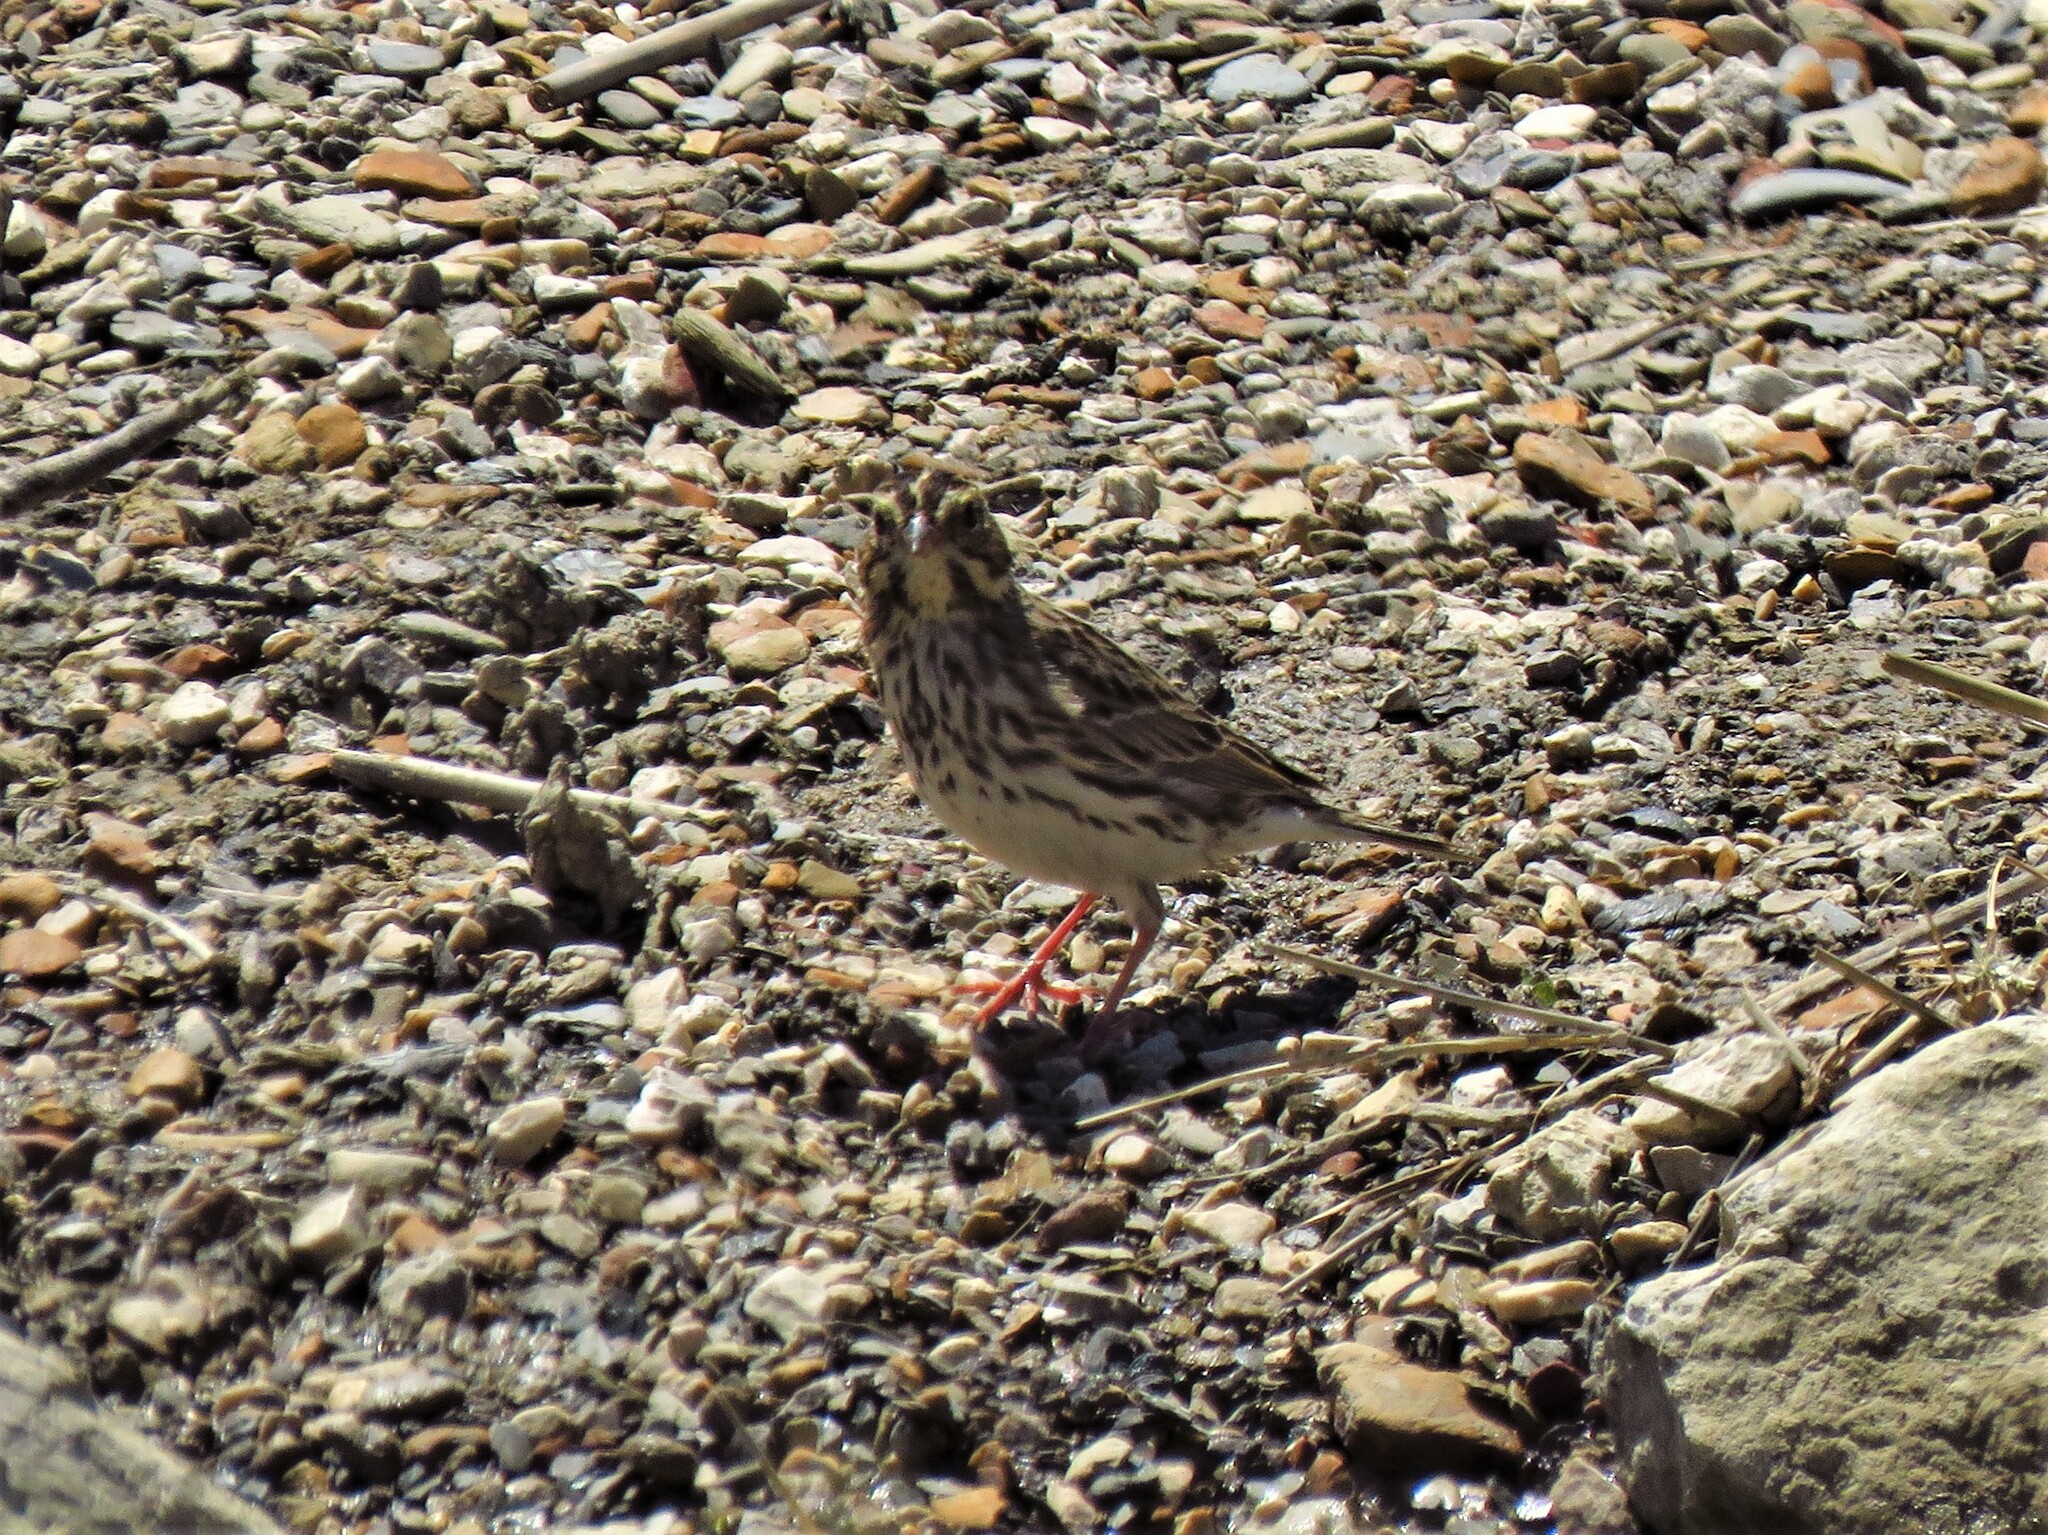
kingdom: Animalia
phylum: Chordata
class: Aves
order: Passeriformes
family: Passerellidae
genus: Passerculus
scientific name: Passerculus sandwichensis
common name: Savannah sparrow
